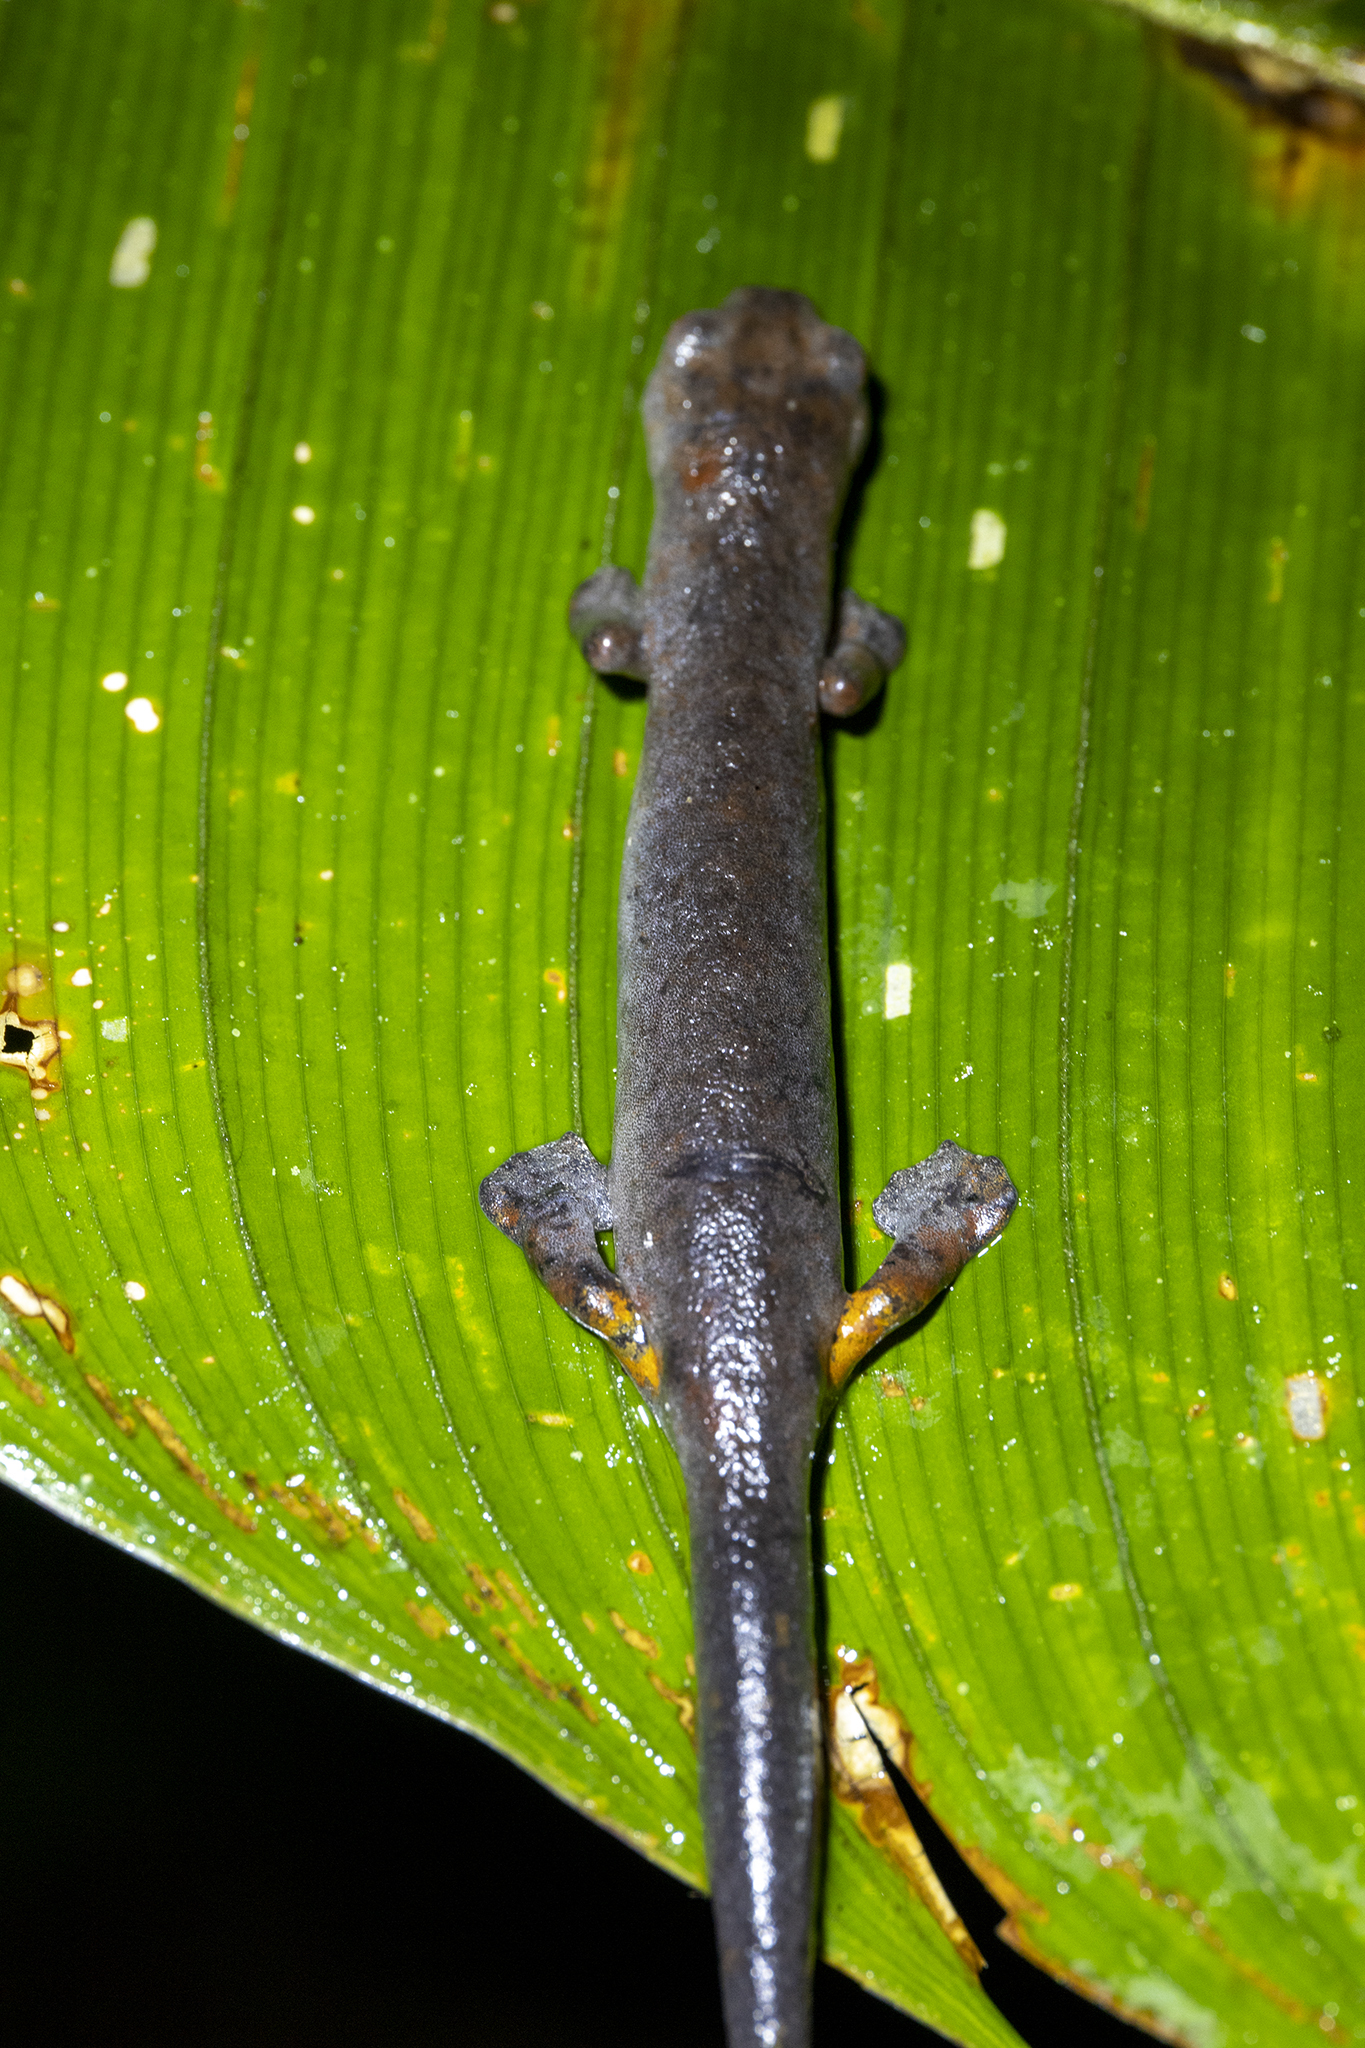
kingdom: Animalia
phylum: Chordata
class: Amphibia
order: Caudata
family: Plethodontidae
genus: Bolitoglossa
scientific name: Bolitoglossa equatoriana
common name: Ecuador mushroomtongue salamander
